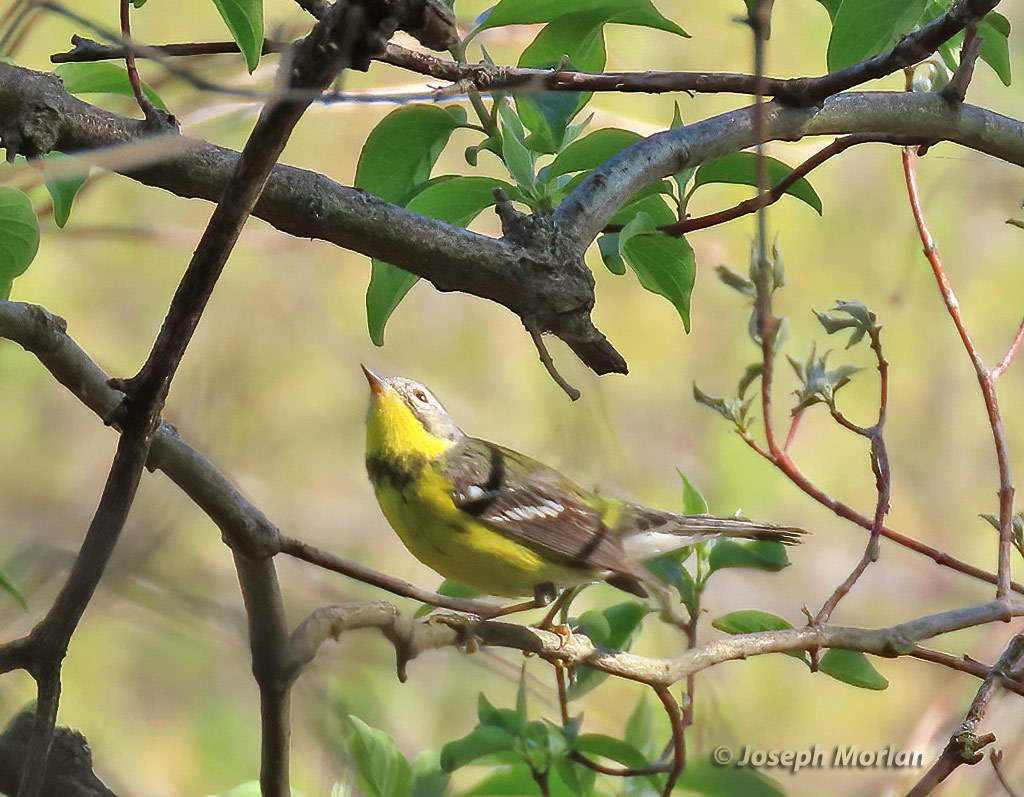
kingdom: Animalia
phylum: Chordata
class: Aves
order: Passeriformes
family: Parulidae
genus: Setophaga
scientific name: Setophaga magnolia
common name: Magnolia warbler
